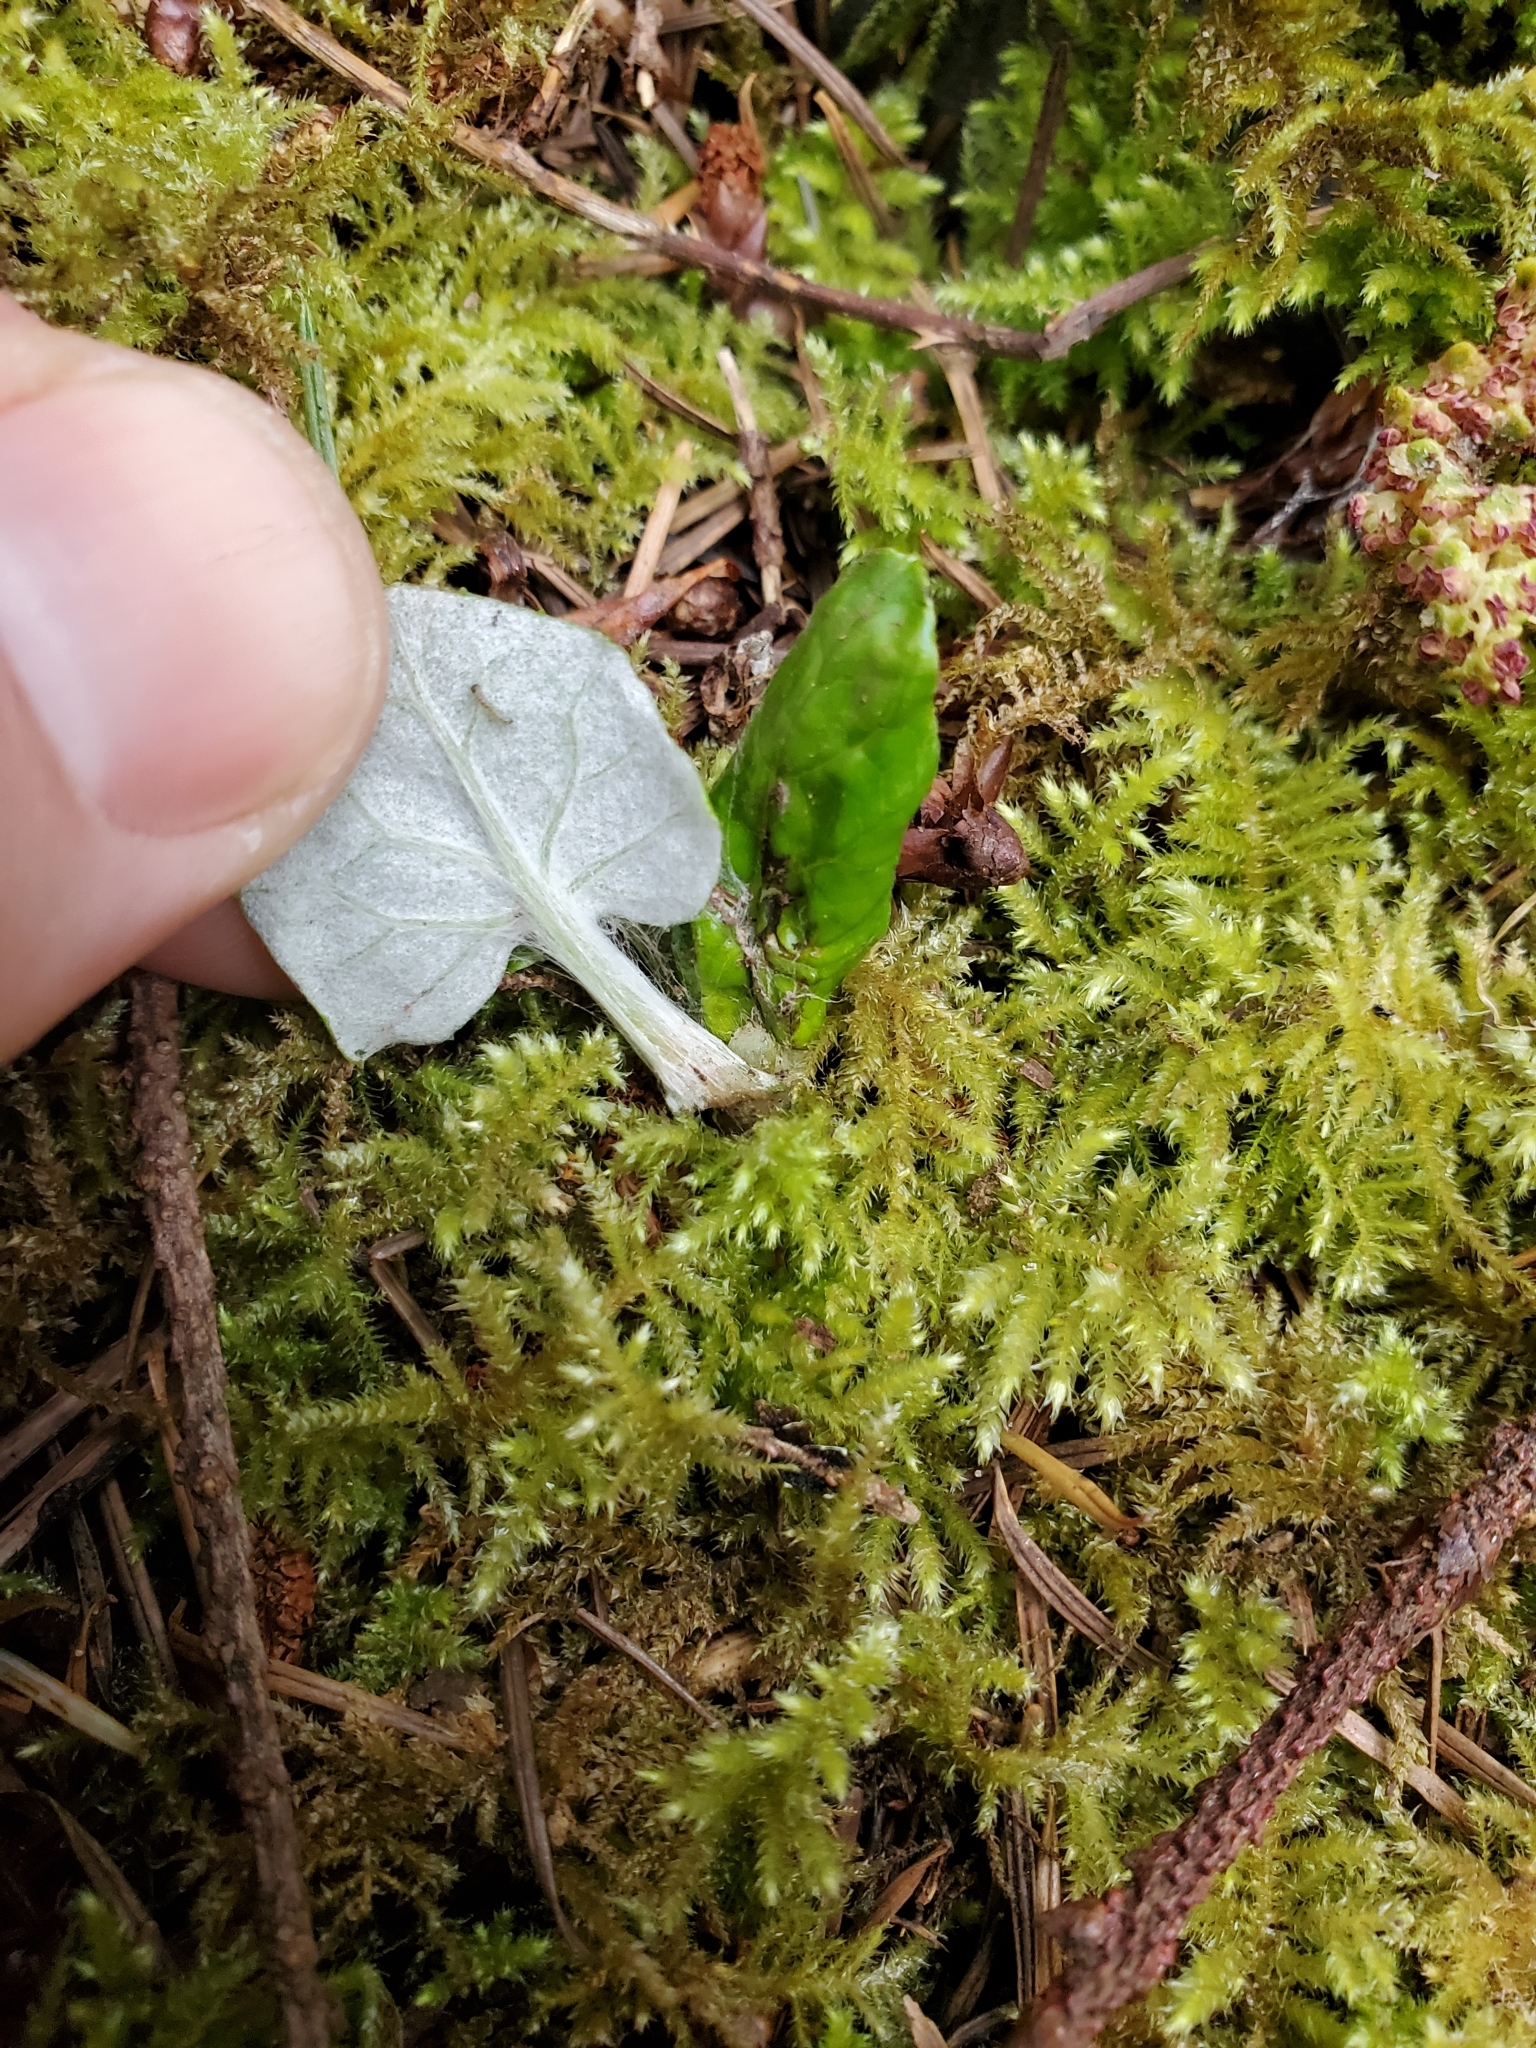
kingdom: Plantae
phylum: Tracheophyta
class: Magnoliopsida
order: Asterales
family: Asteraceae
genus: Adenocaulon
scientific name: Adenocaulon bicolor
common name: Trailplant
